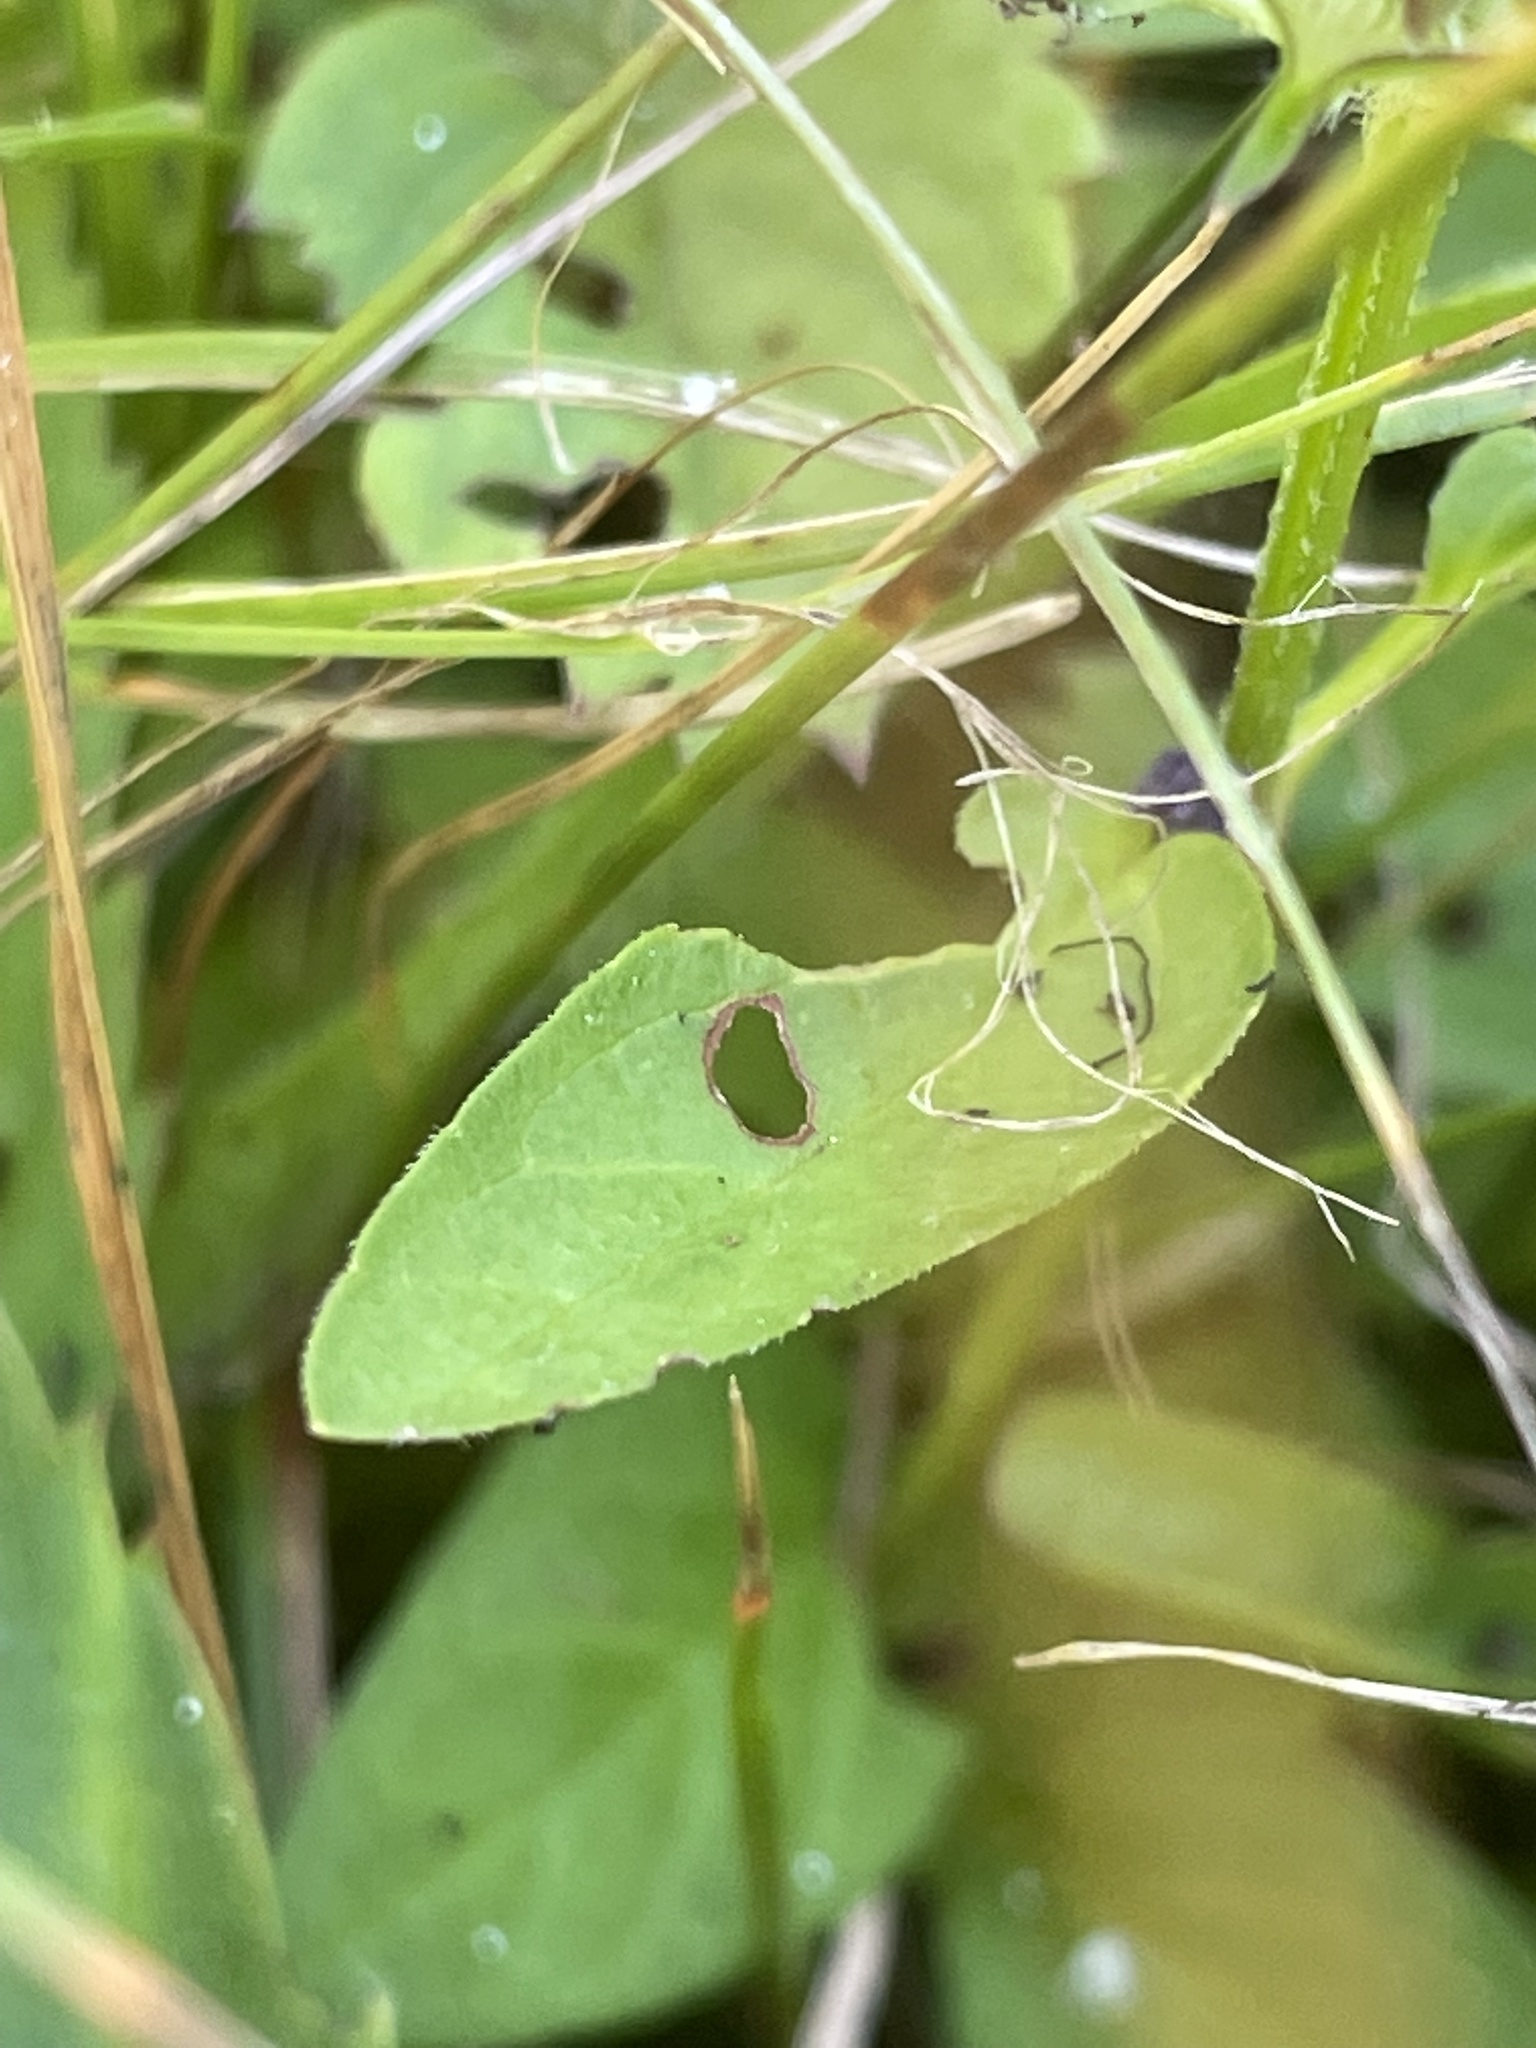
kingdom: Plantae
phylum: Tracheophyta
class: Magnoliopsida
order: Lamiales
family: Lamiaceae
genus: Prunella
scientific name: Prunella vulgaris
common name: Heal-all
